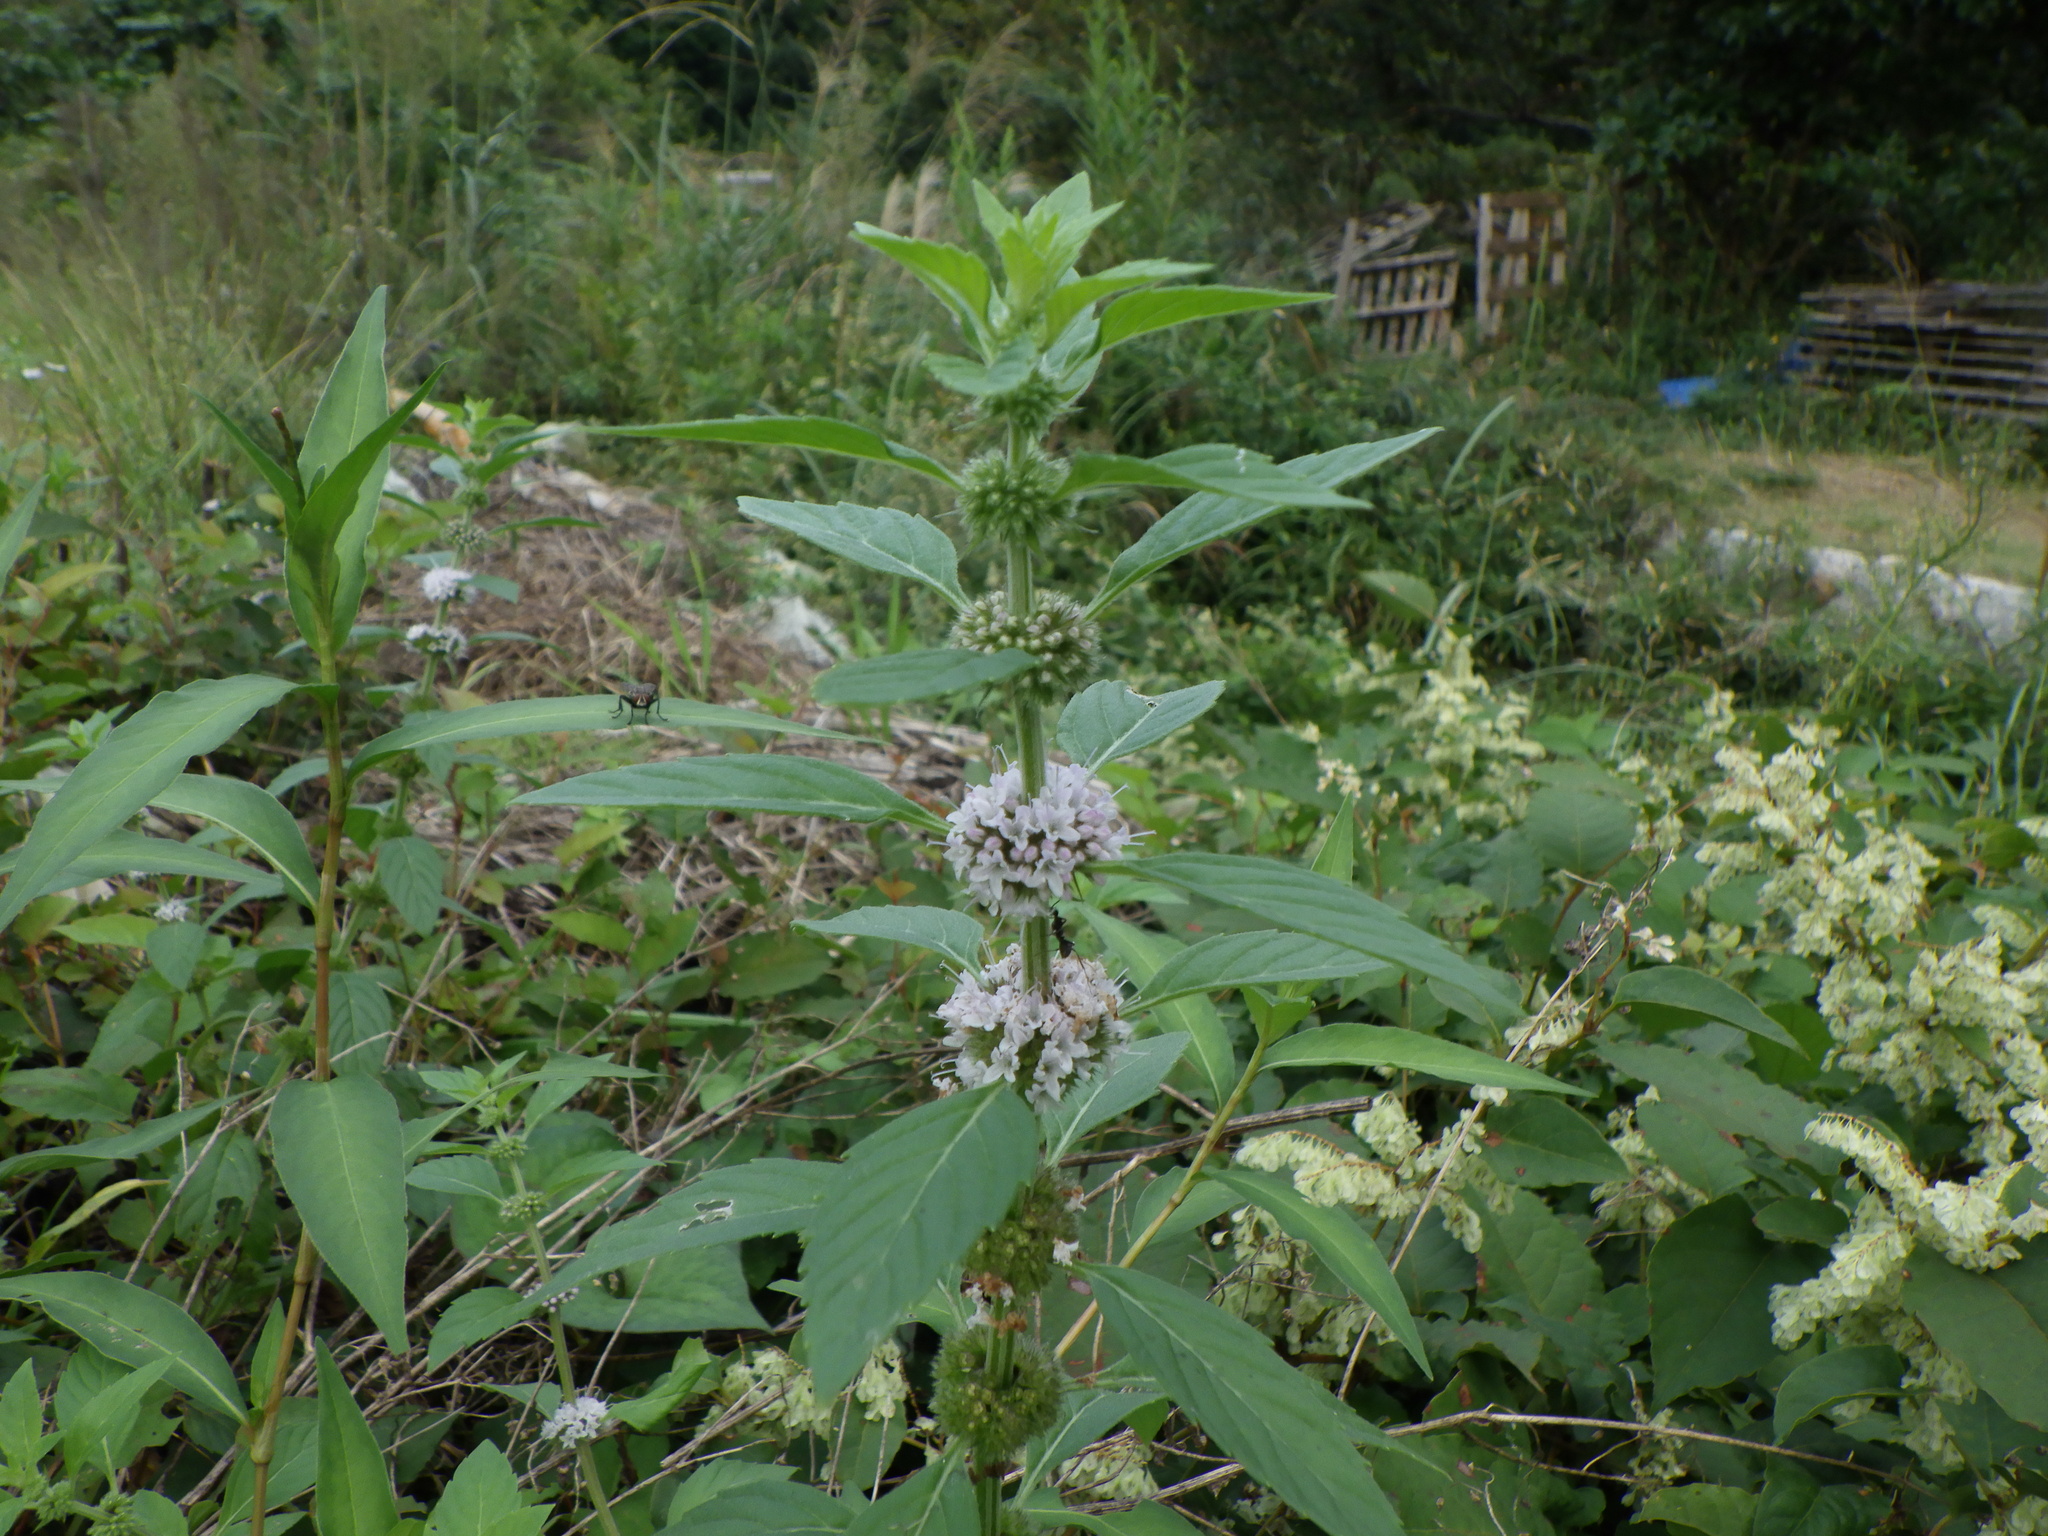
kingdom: Plantae
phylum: Tracheophyta
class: Magnoliopsida
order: Lamiales
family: Lamiaceae
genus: Mentha
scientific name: Mentha canadensis
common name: American corn mint
